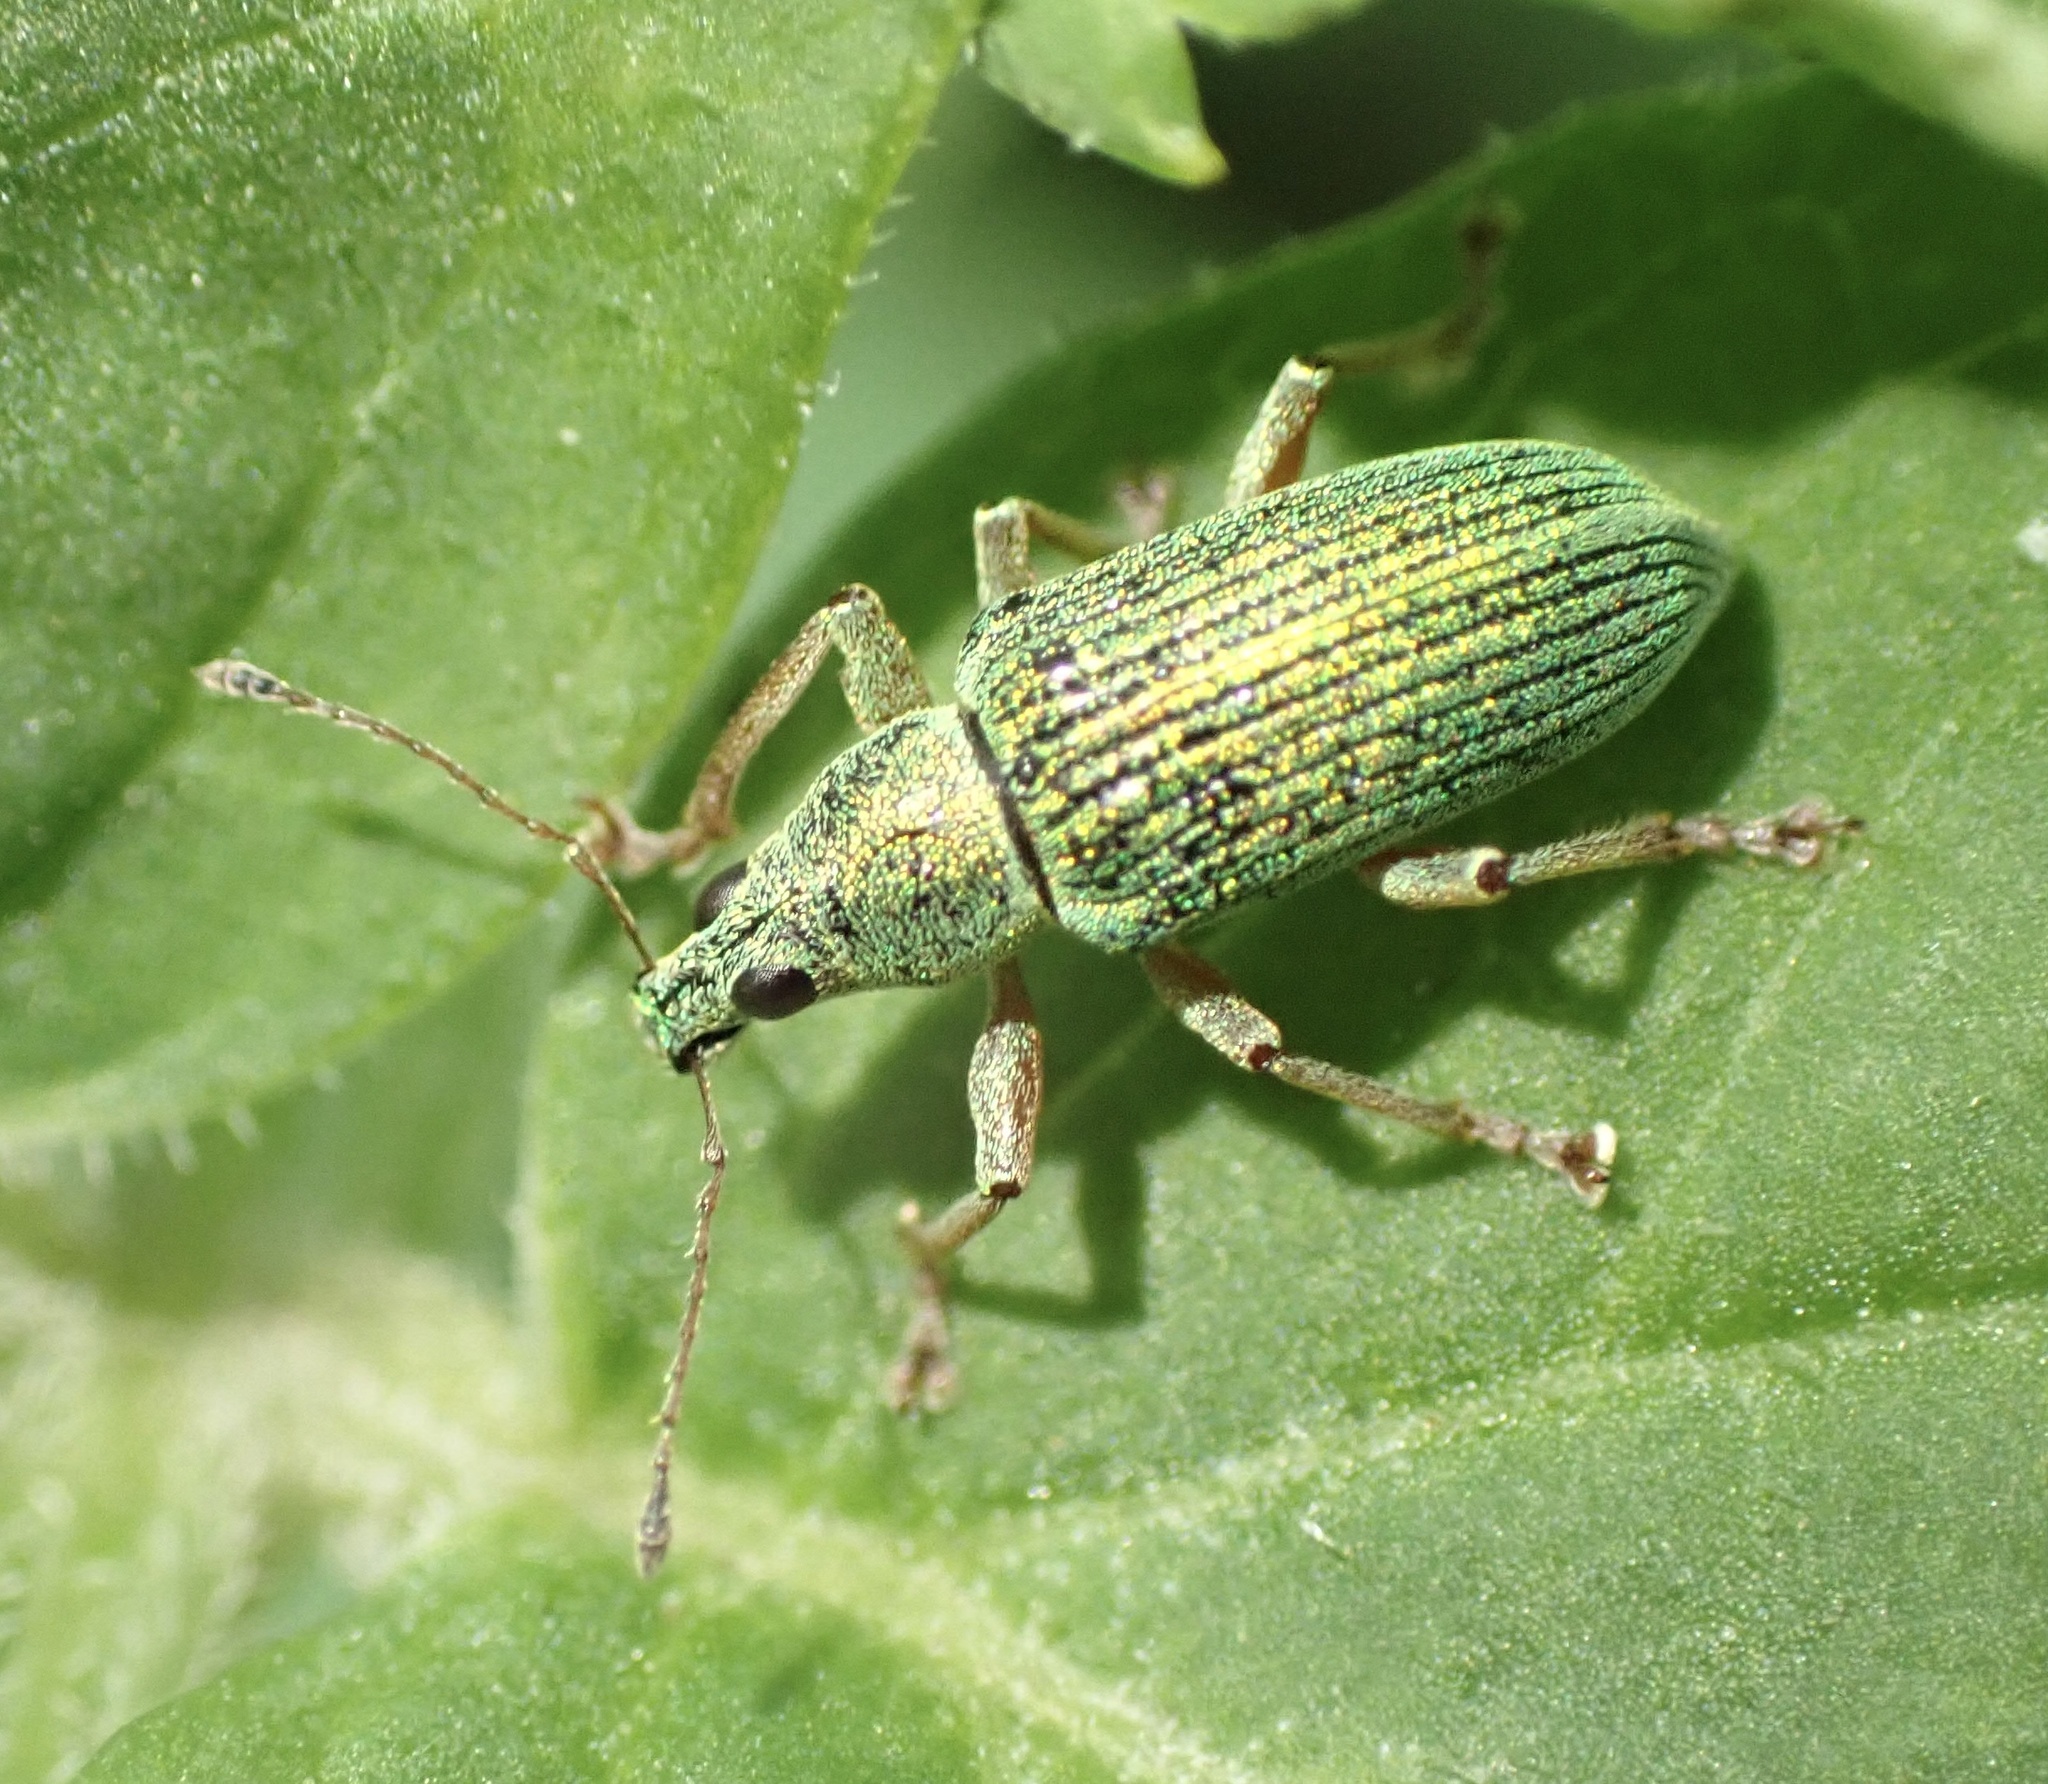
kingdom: Animalia
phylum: Arthropoda
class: Insecta
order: Coleoptera
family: Curculionidae
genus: Polydrusus
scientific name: Polydrusus formosus
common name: Weevil
